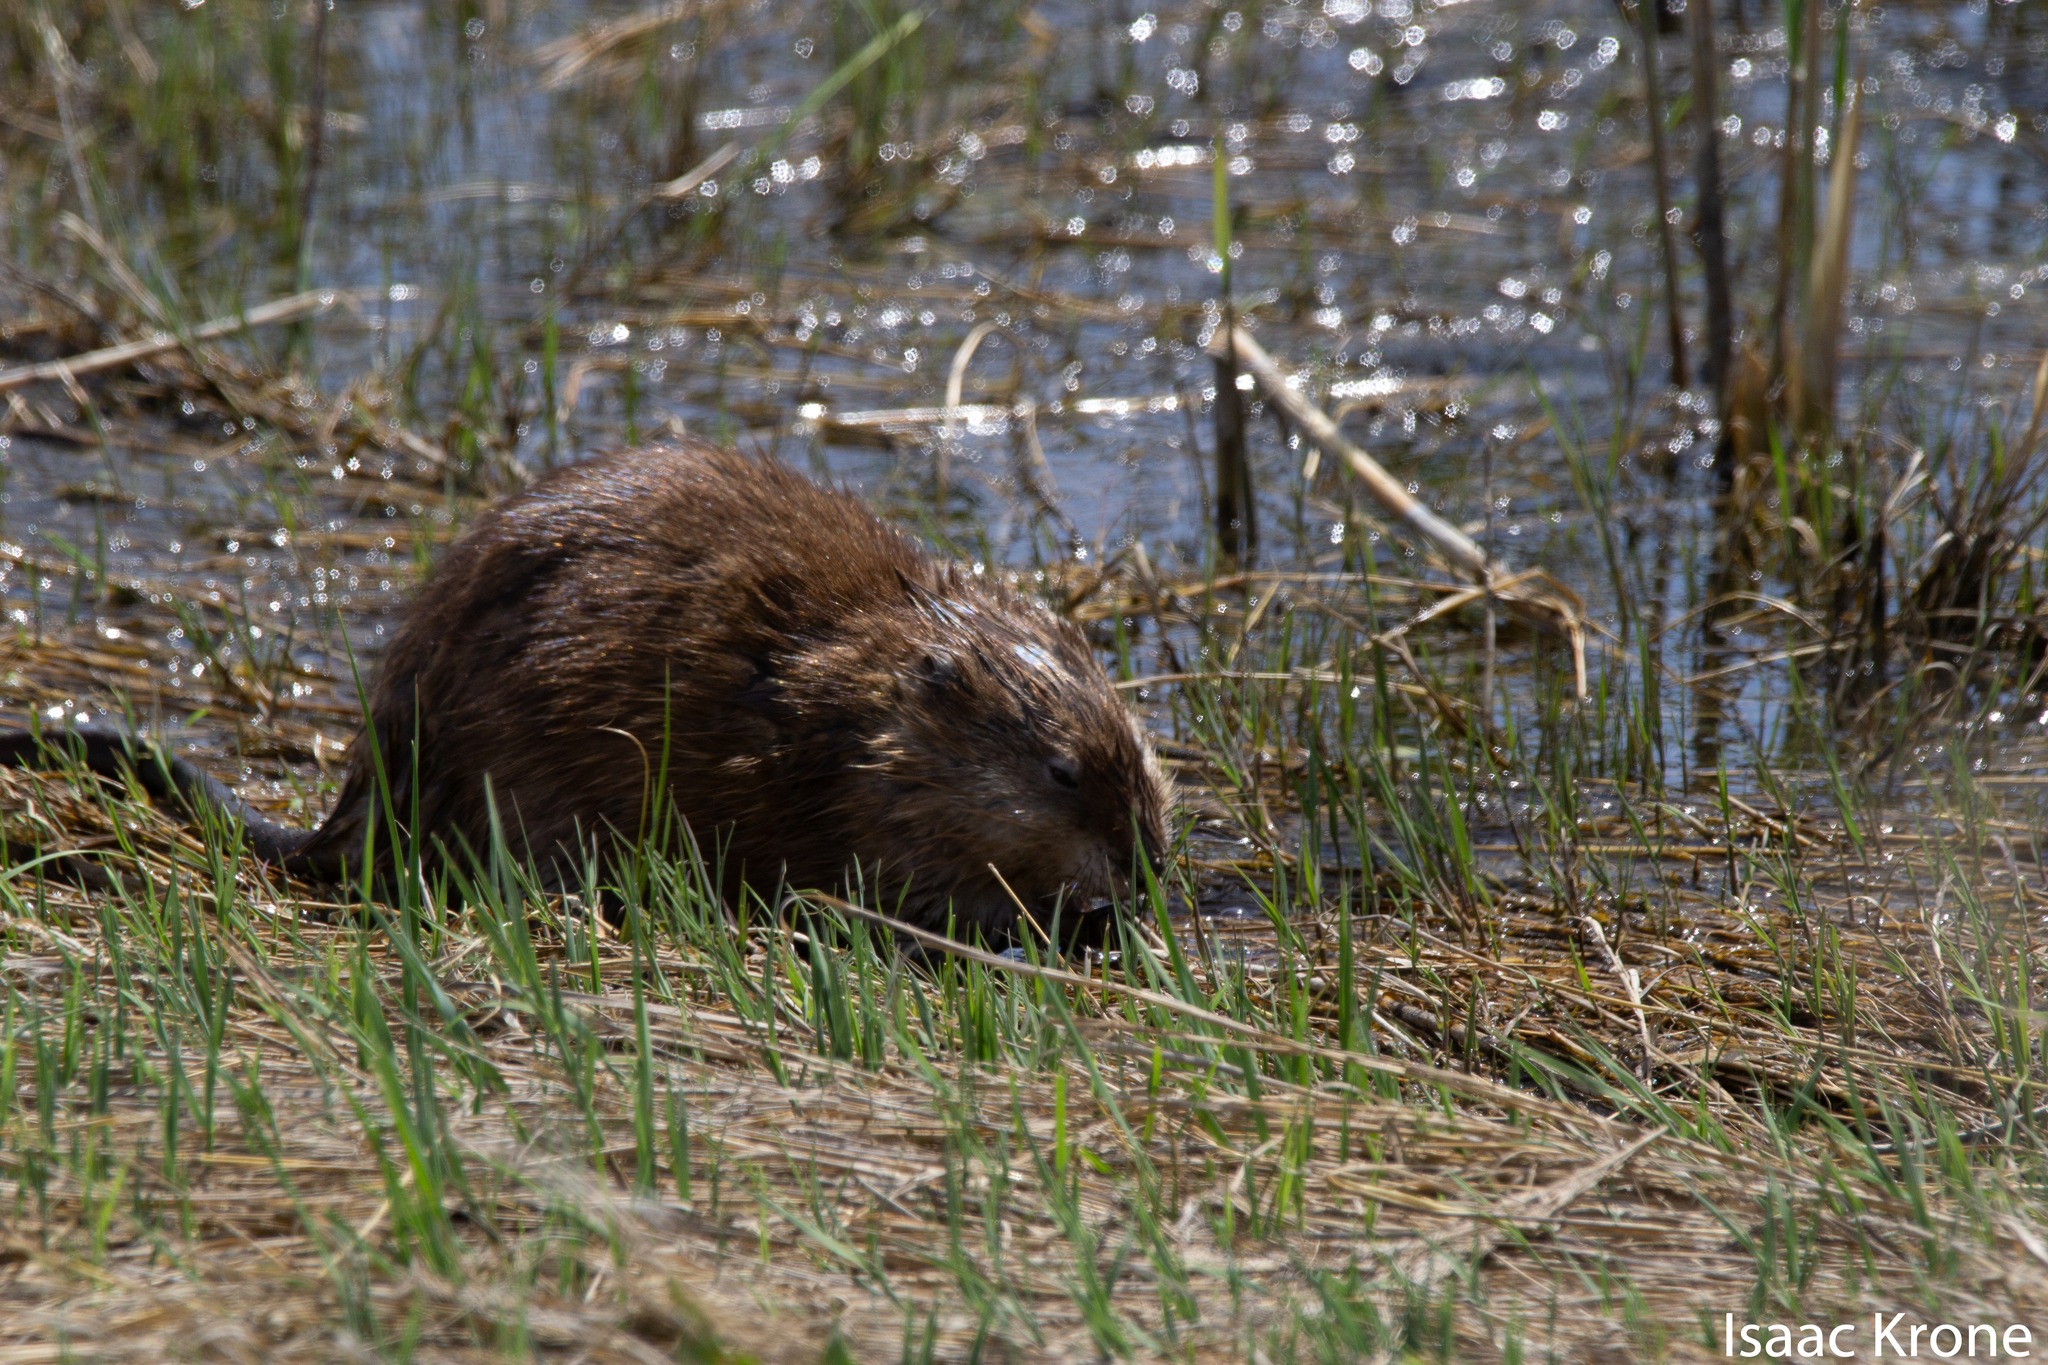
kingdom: Animalia
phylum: Chordata
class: Mammalia
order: Rodentia
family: Cricetidae
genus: Ondatra
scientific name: Ondatra zibethicus
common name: Muskrat
